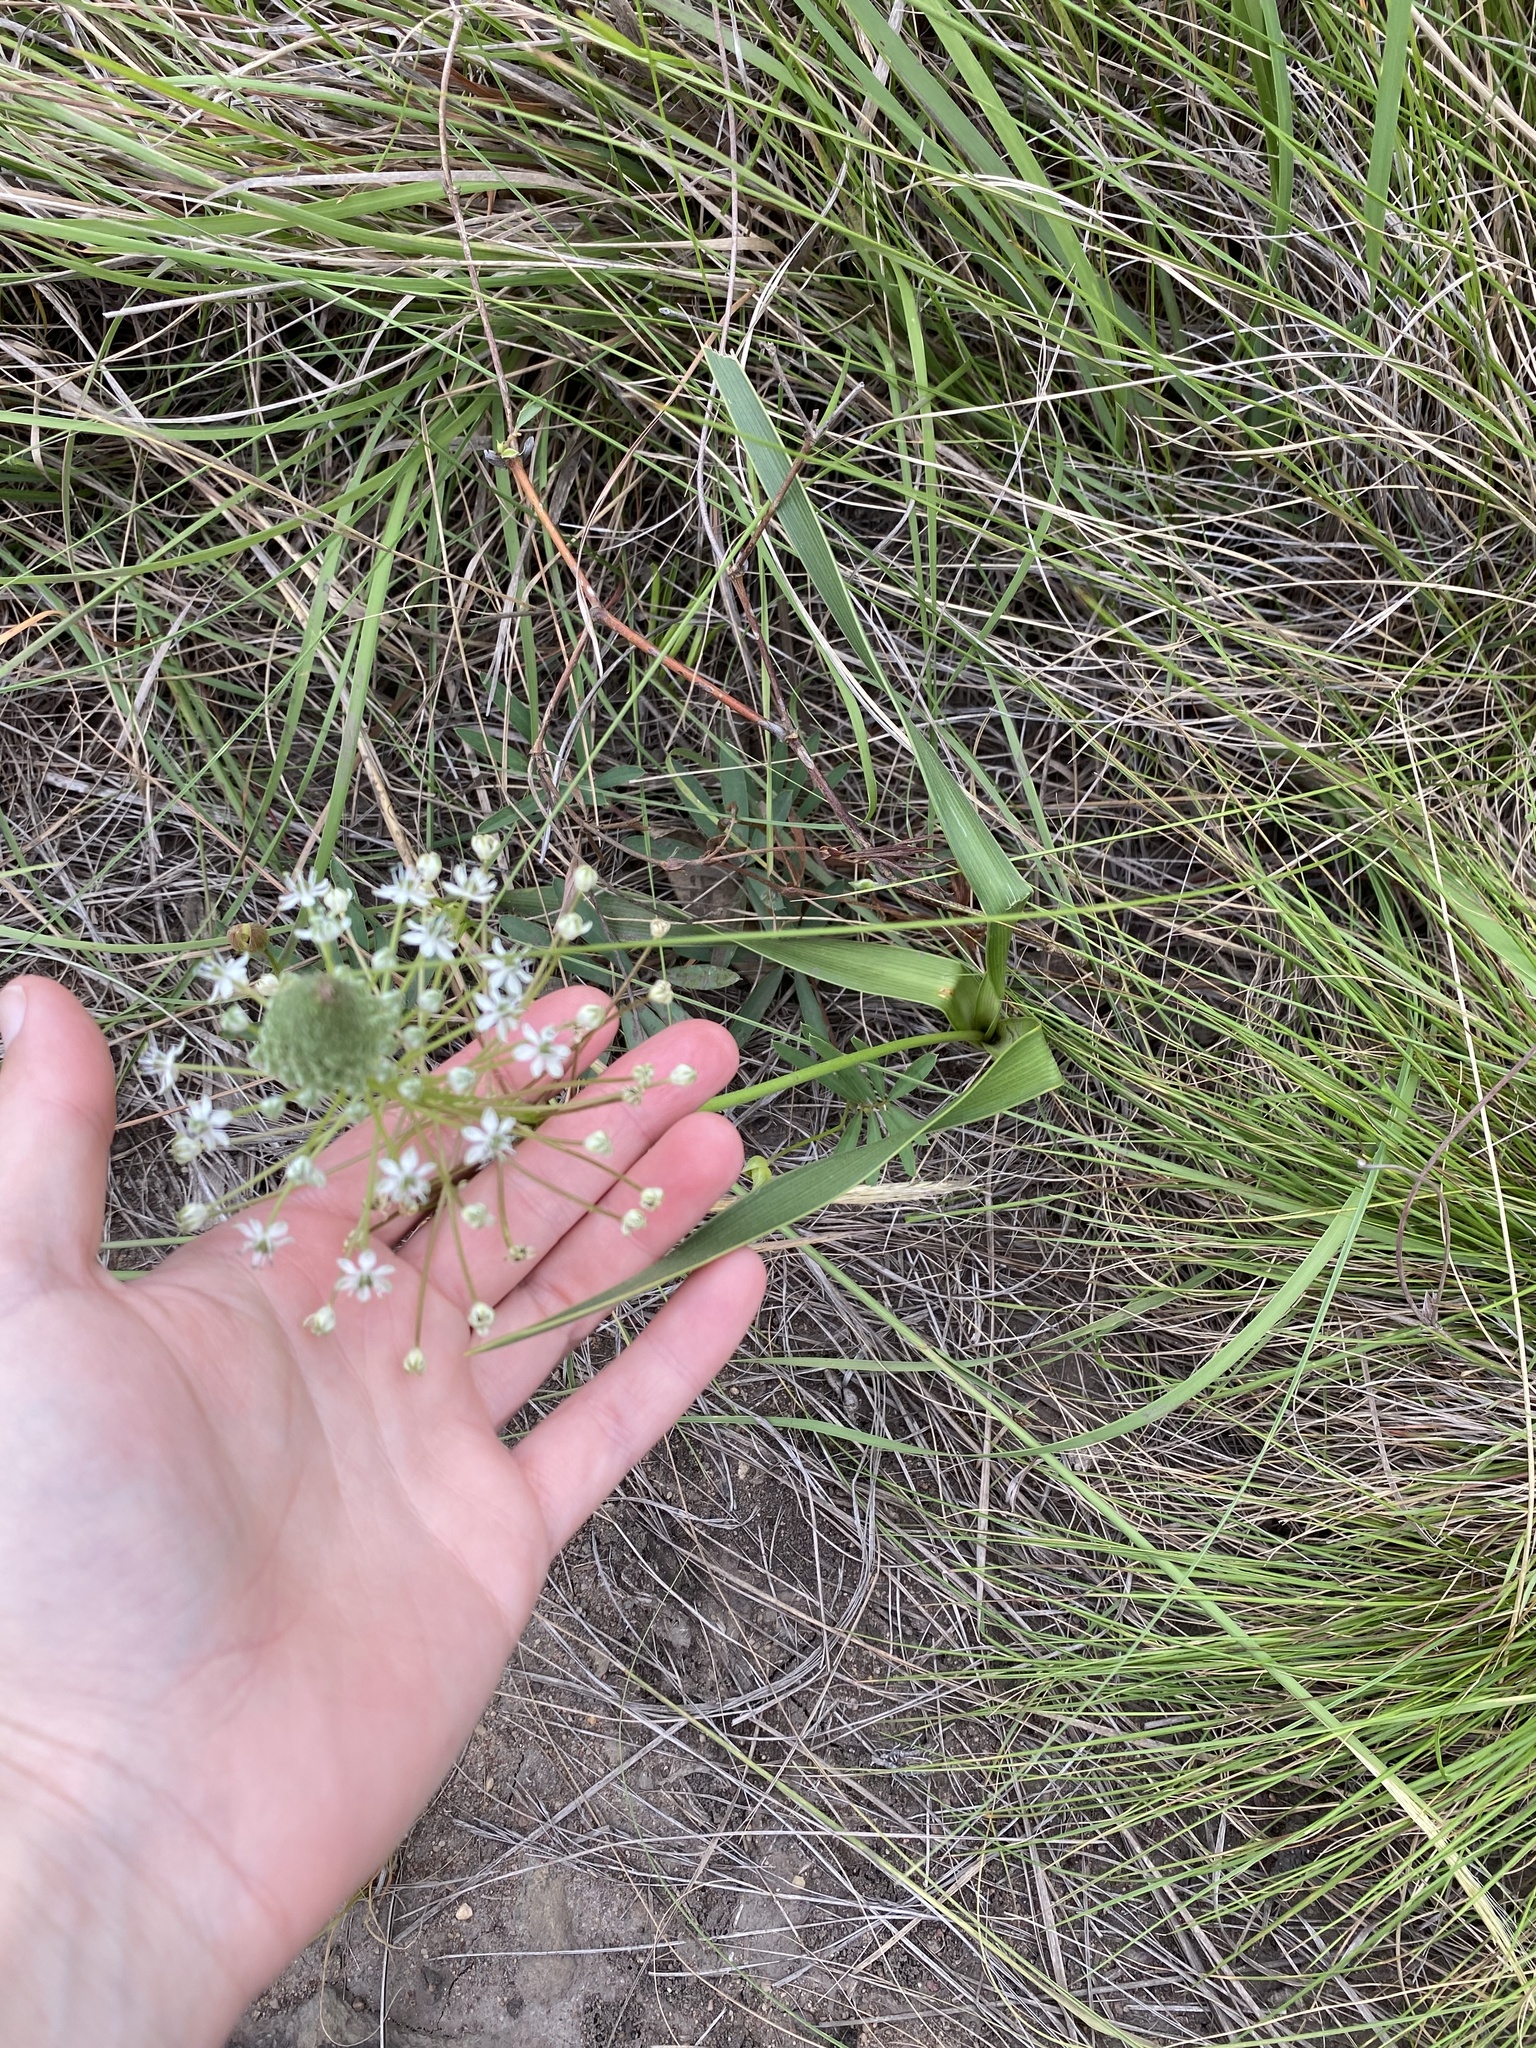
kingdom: Plantae
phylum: Tracheophyta
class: Liliopsida
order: Asparagales
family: Asparagaceae
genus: Schizocarphus
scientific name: Schizocarphus nervosus
